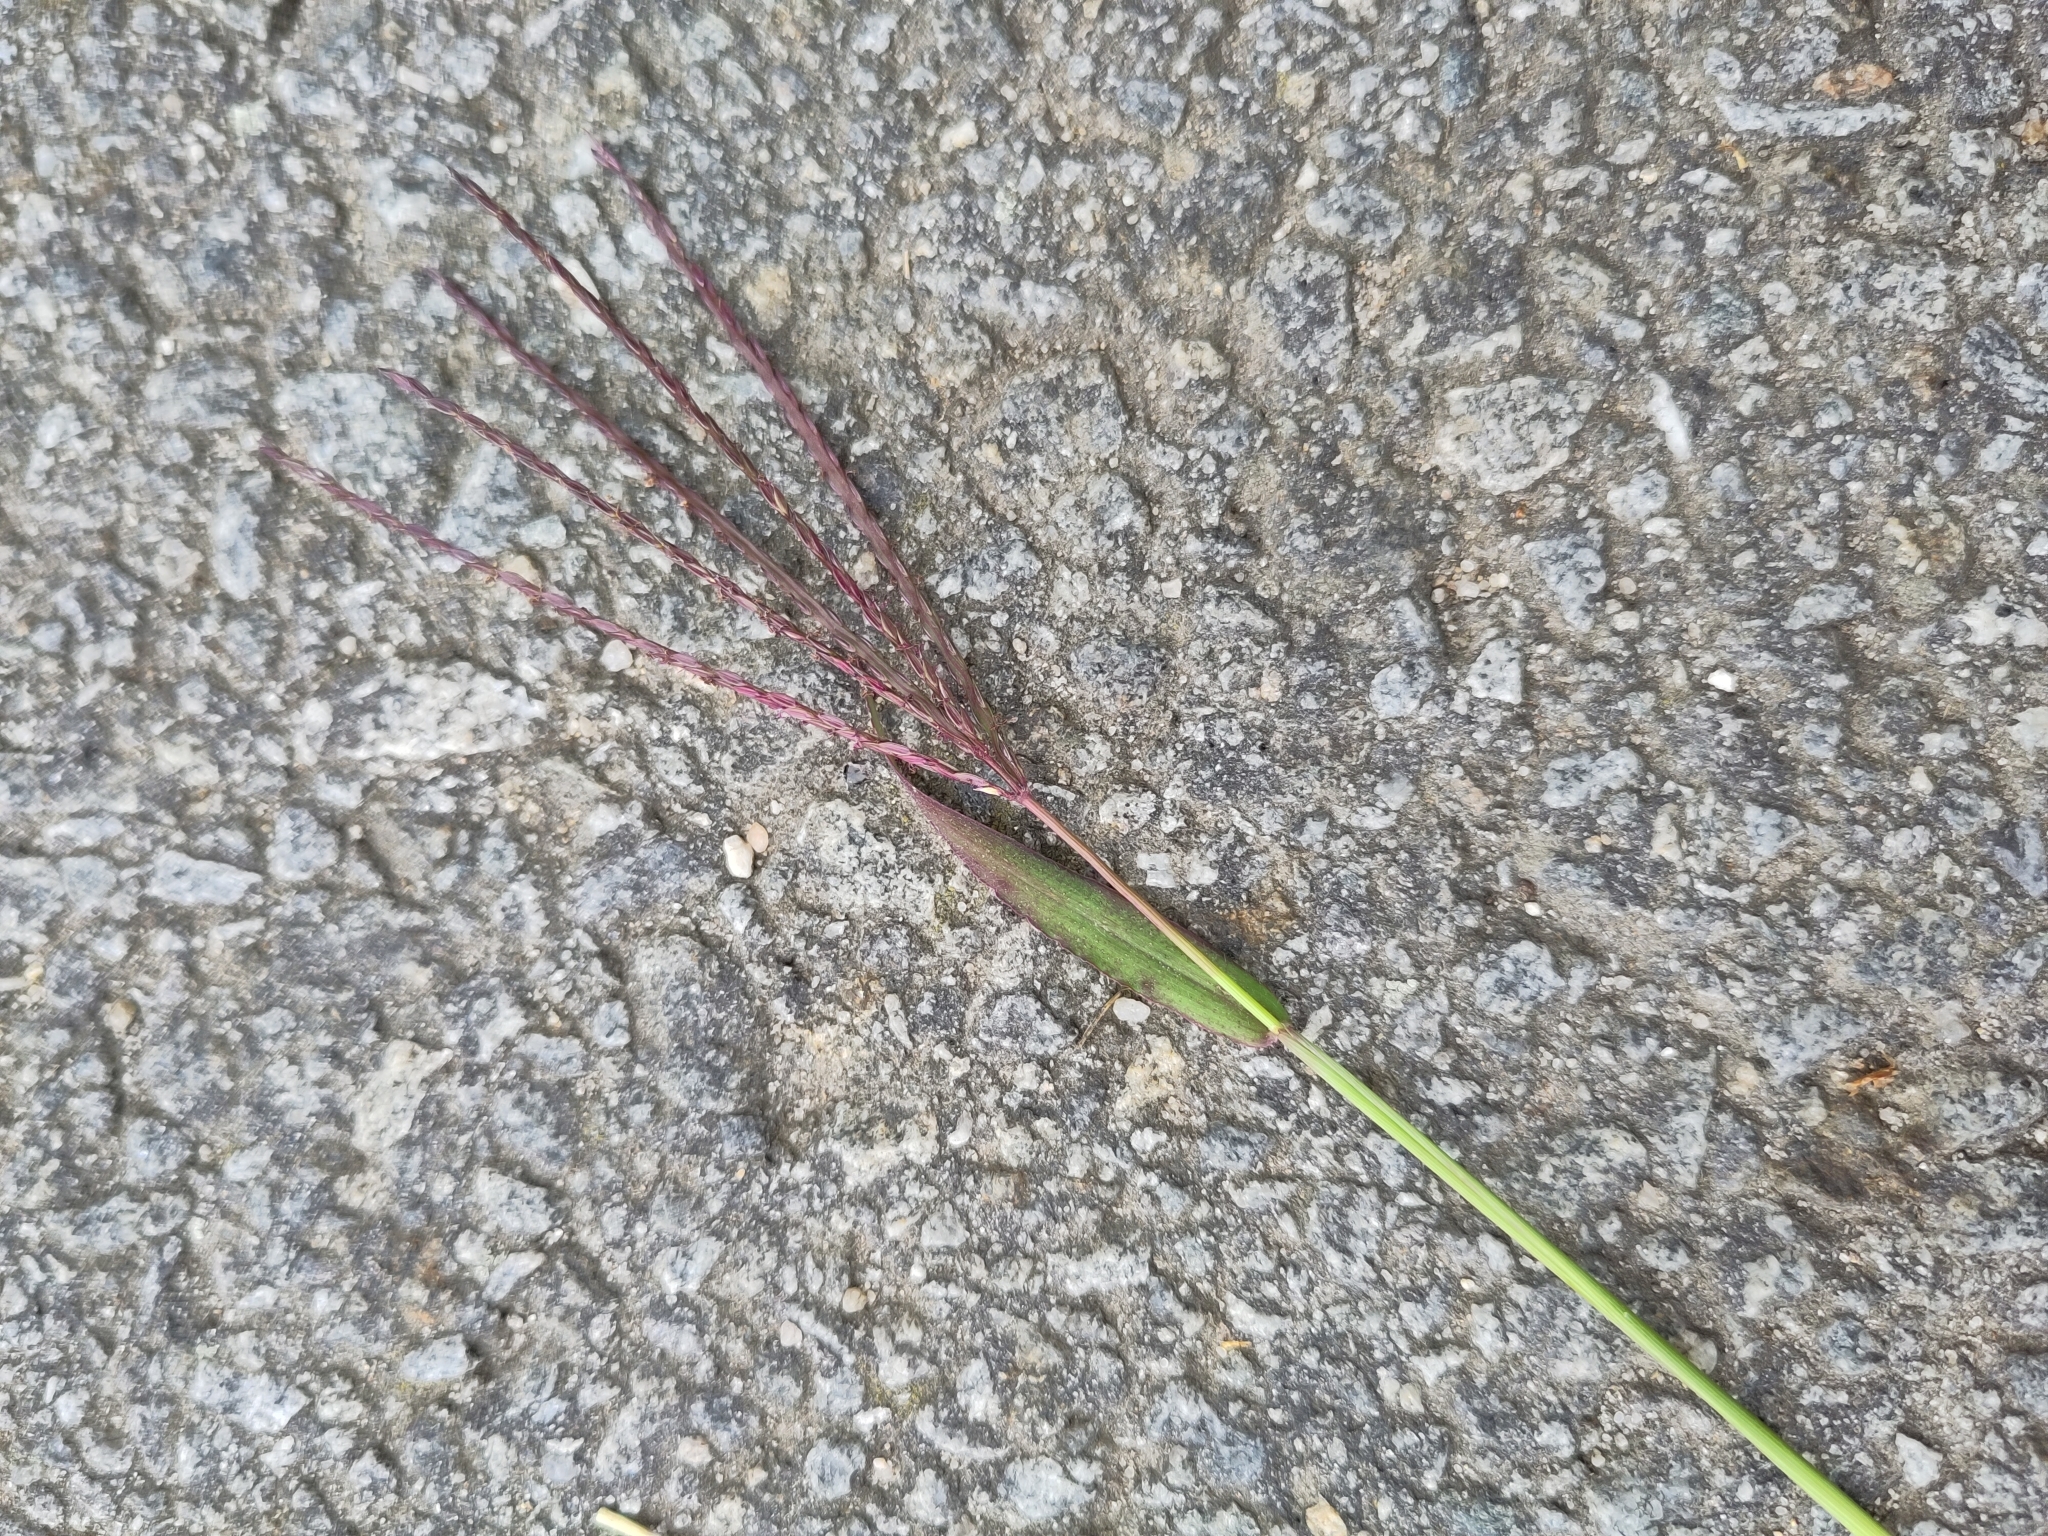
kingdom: Plantae
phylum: Tracheophyta
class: Liliopsida
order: Poales
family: Poaceae
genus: Digitaria
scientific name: Digitaria sanguinalis
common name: Hairy crabgrass
